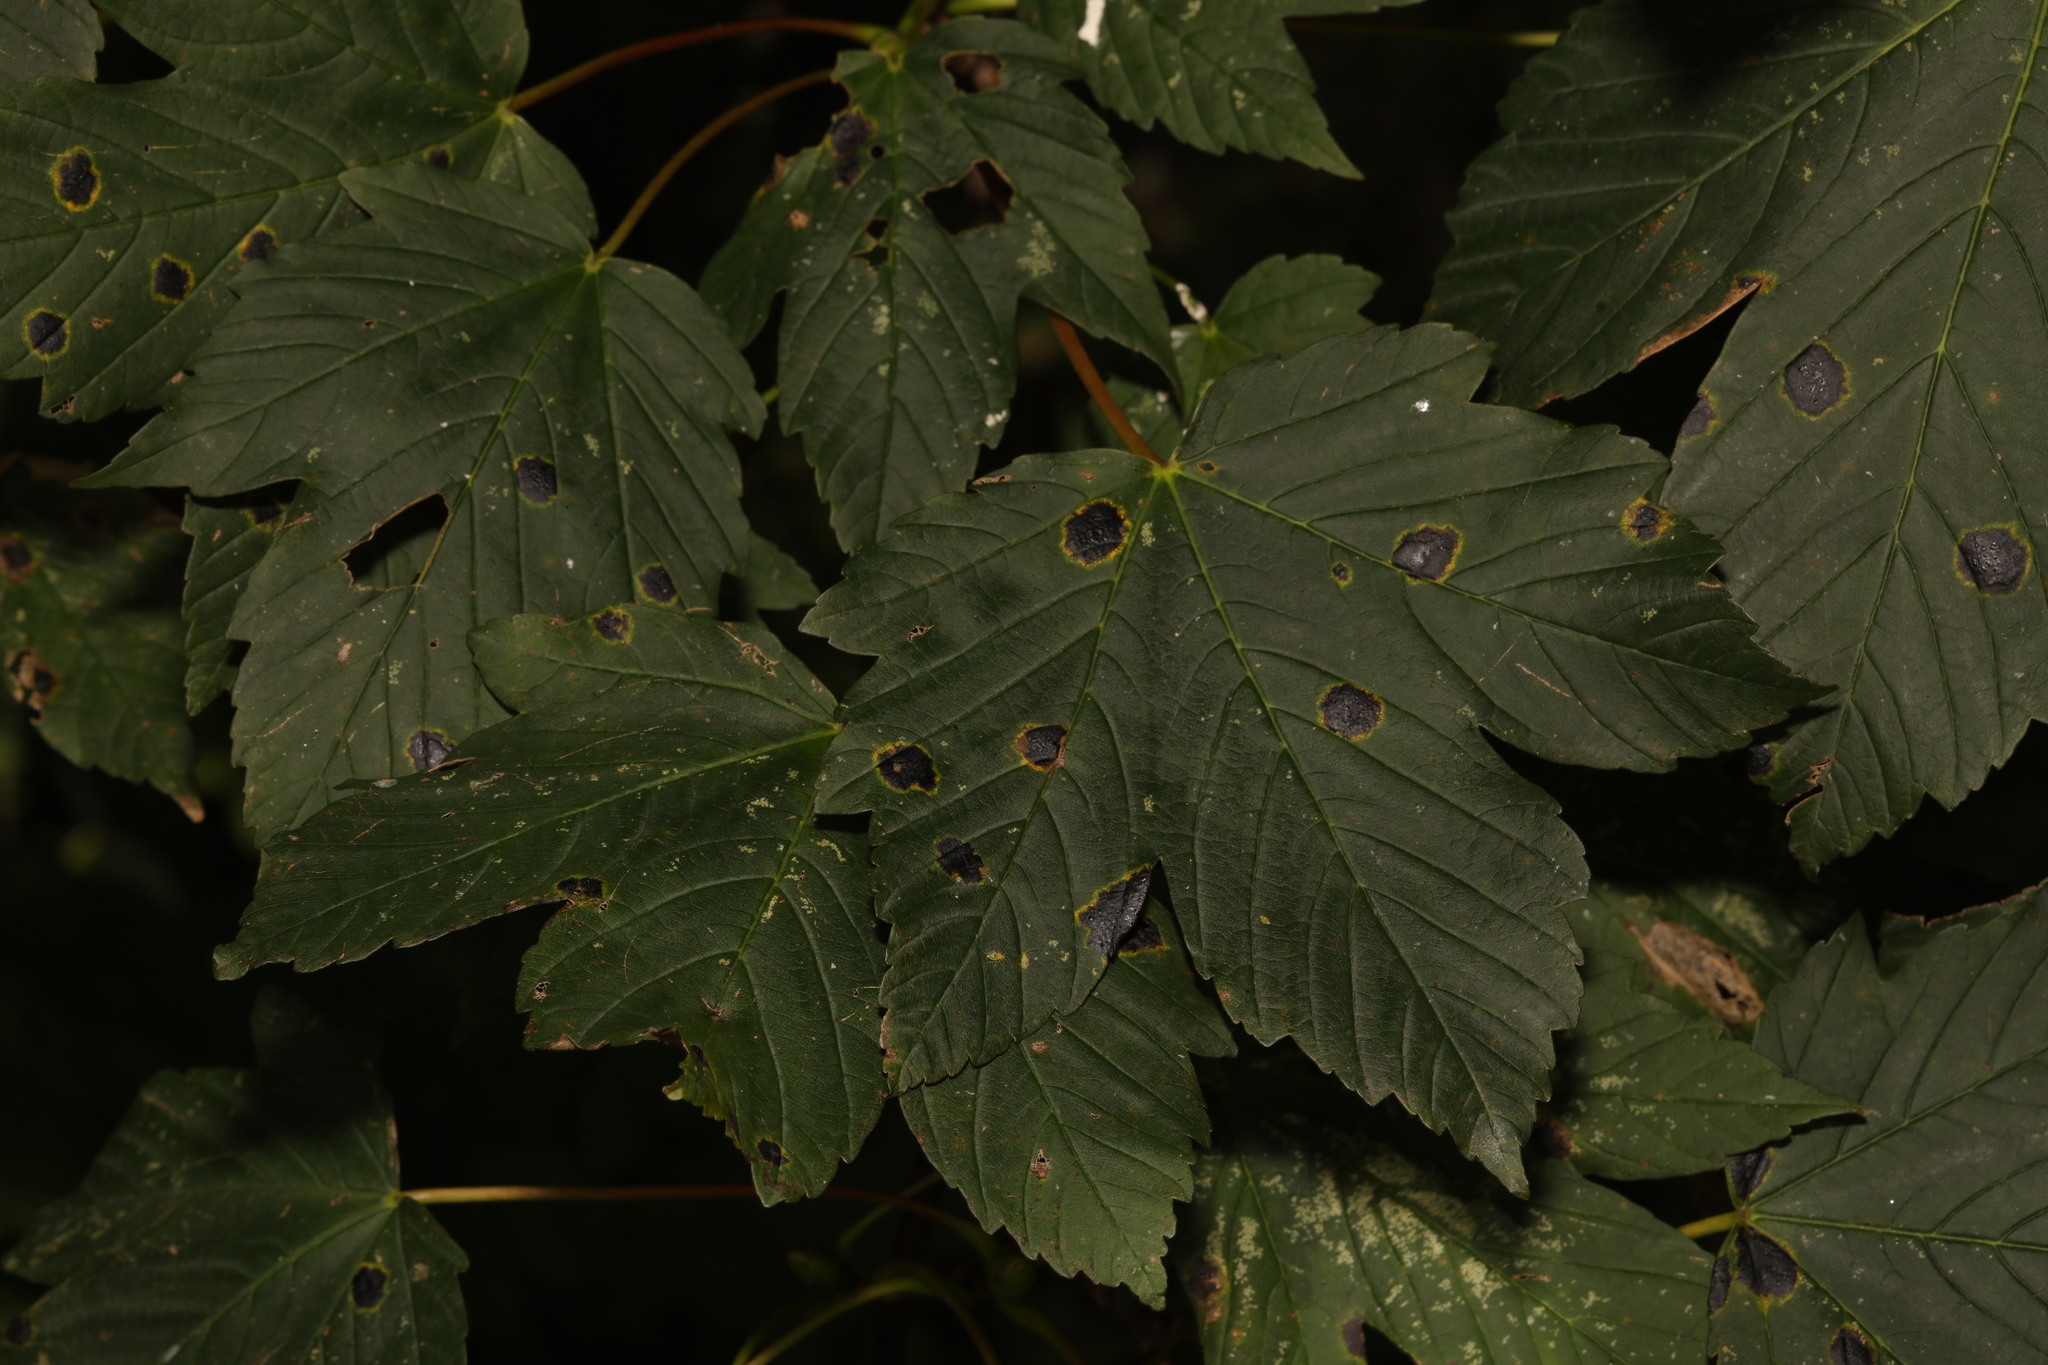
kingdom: Plantae
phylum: Tracheophyta
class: Magnoliopsida
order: Sapindales
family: Sapindaceae
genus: Acer
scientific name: Acer pseudoplatanus
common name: Sycamore
